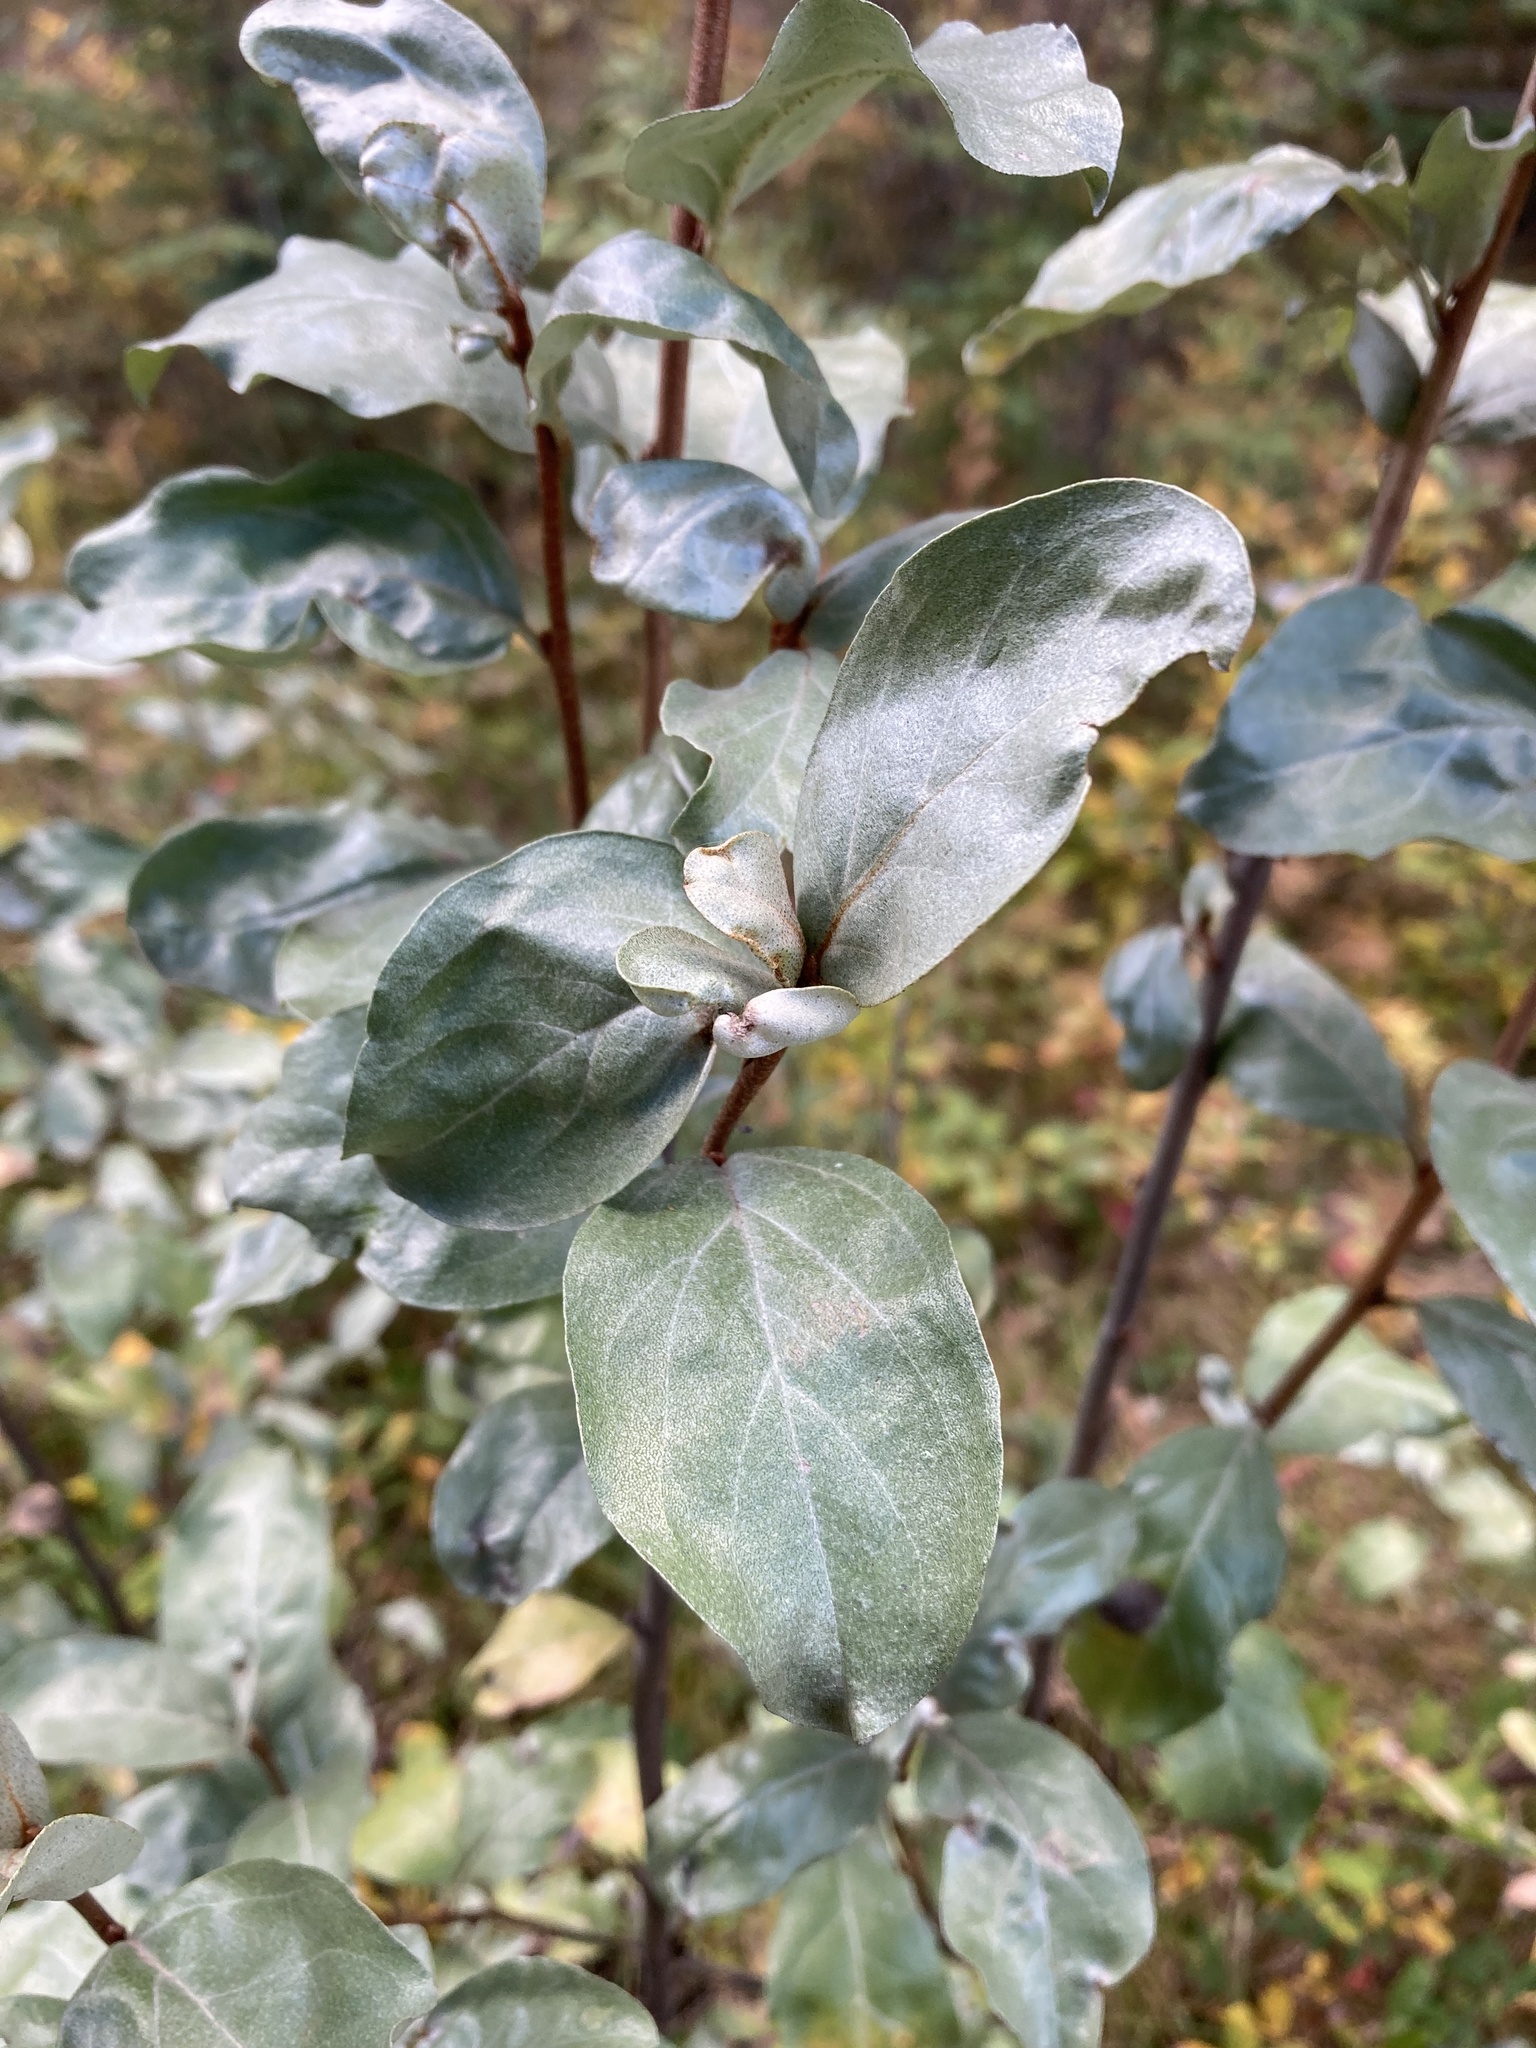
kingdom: Plantae
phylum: Tracheophyta
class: Magnoliopsida
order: Rosales
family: Elaeagnaceae
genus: Elaeagnus
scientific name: Elaeagnus commutata
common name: Silverberry
